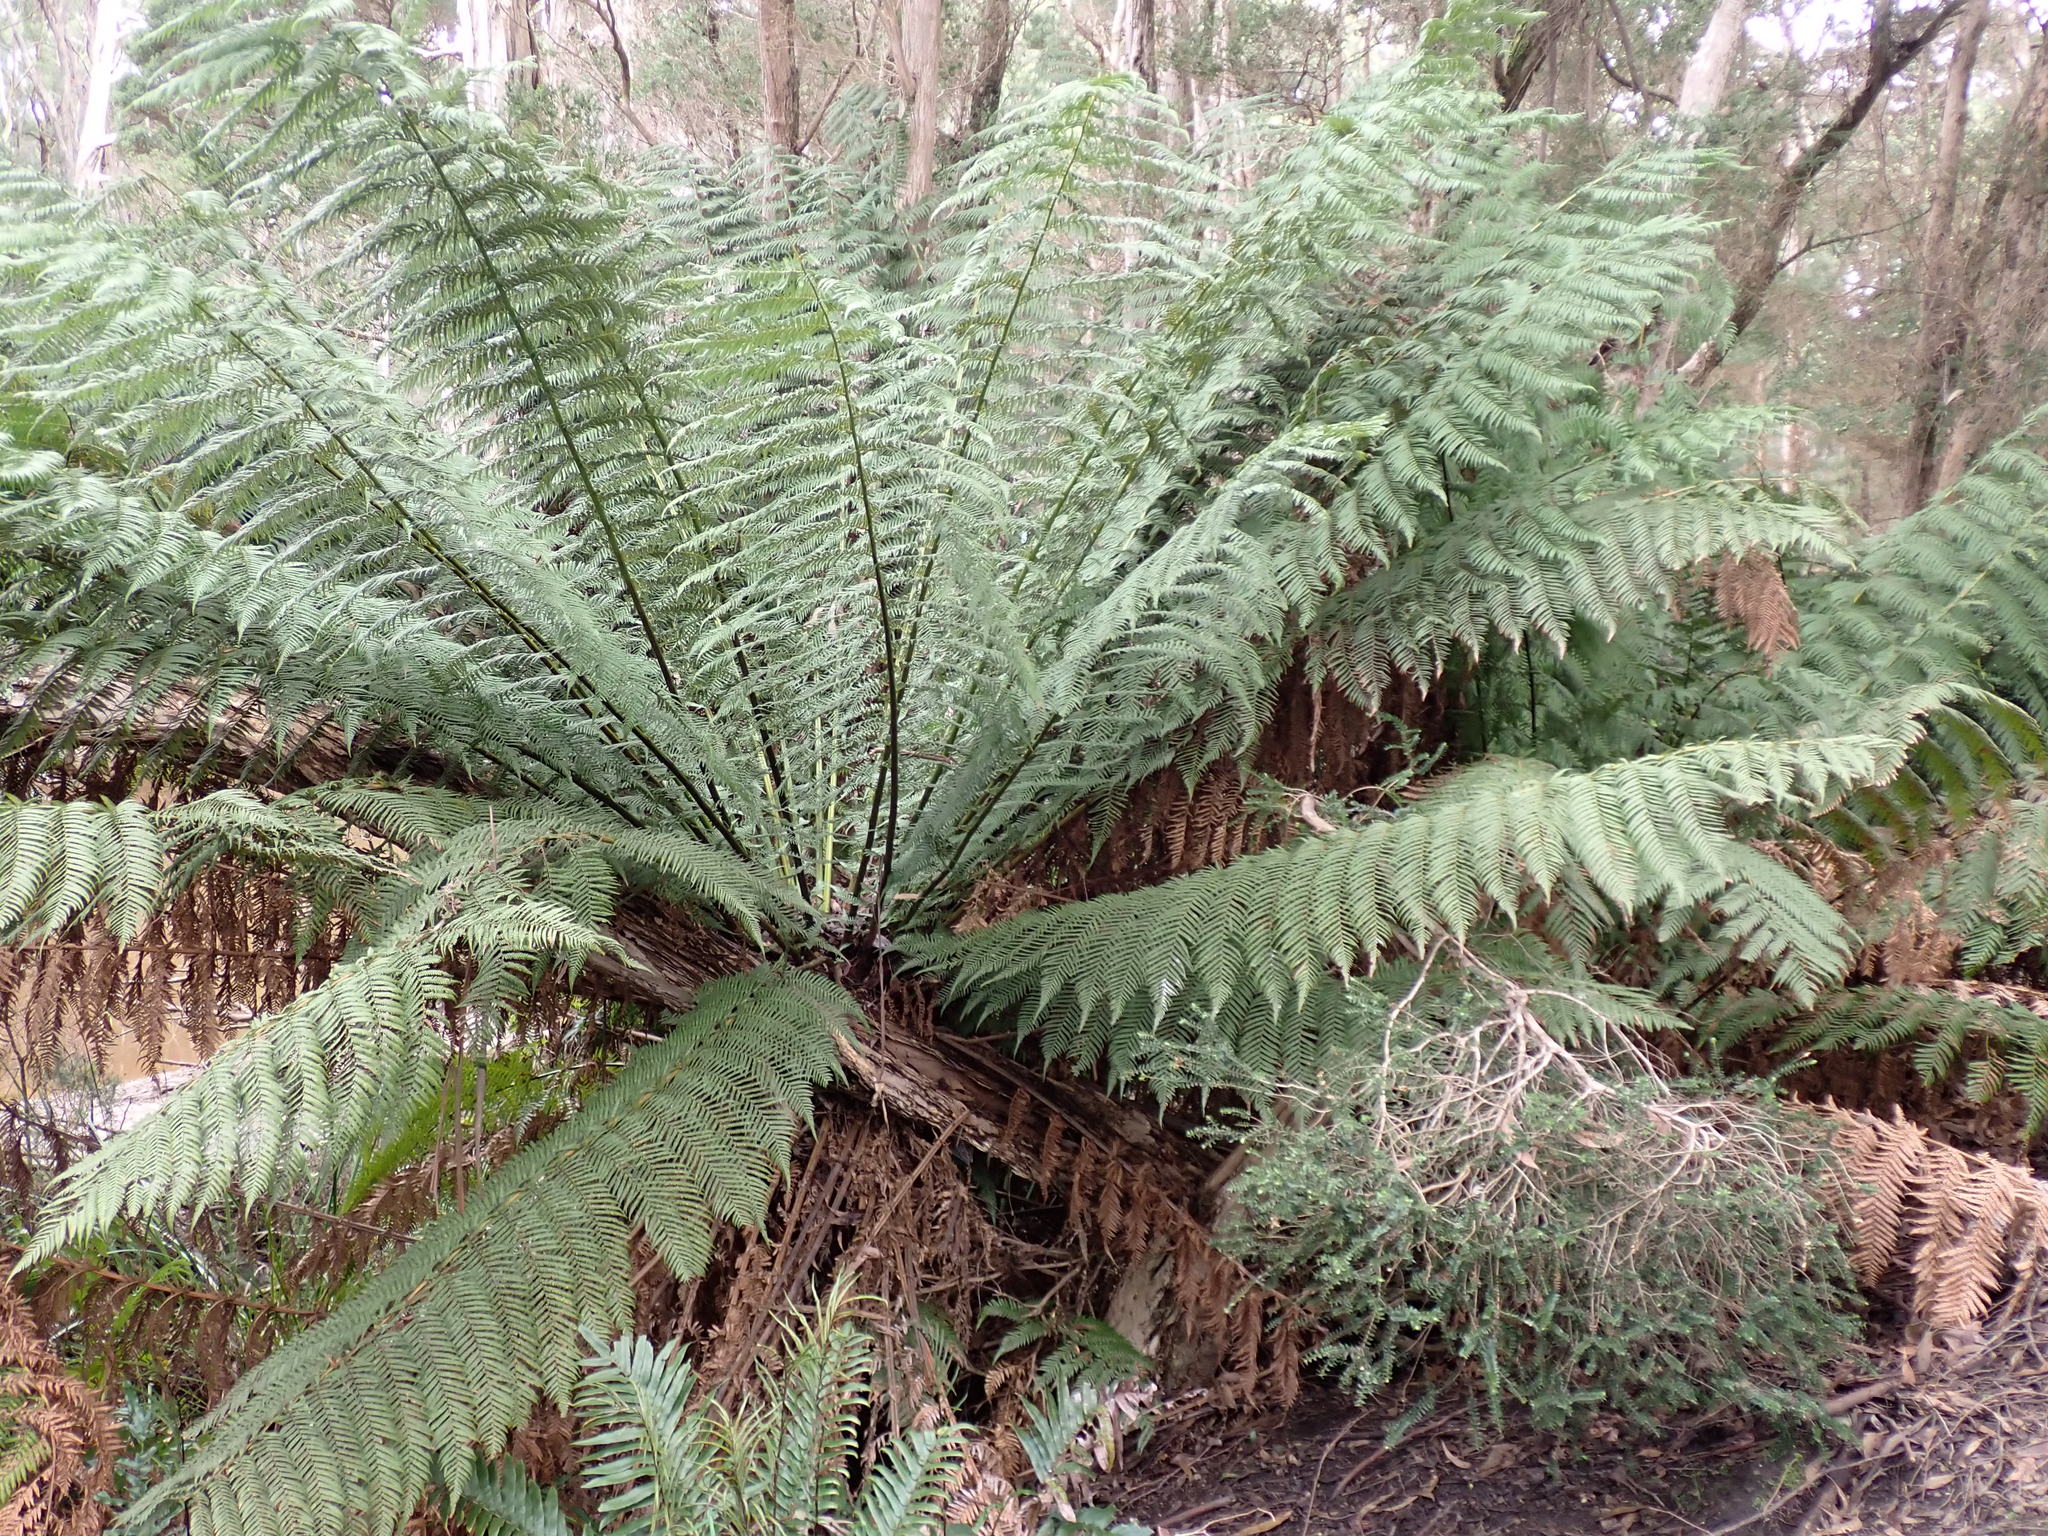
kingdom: Plantae
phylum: Tracheophyta
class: Polypodiopsida
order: Cyatheales
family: Dicksoniaceae
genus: Dicksonia
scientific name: Dicksonia antarctica
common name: Australian treefern
